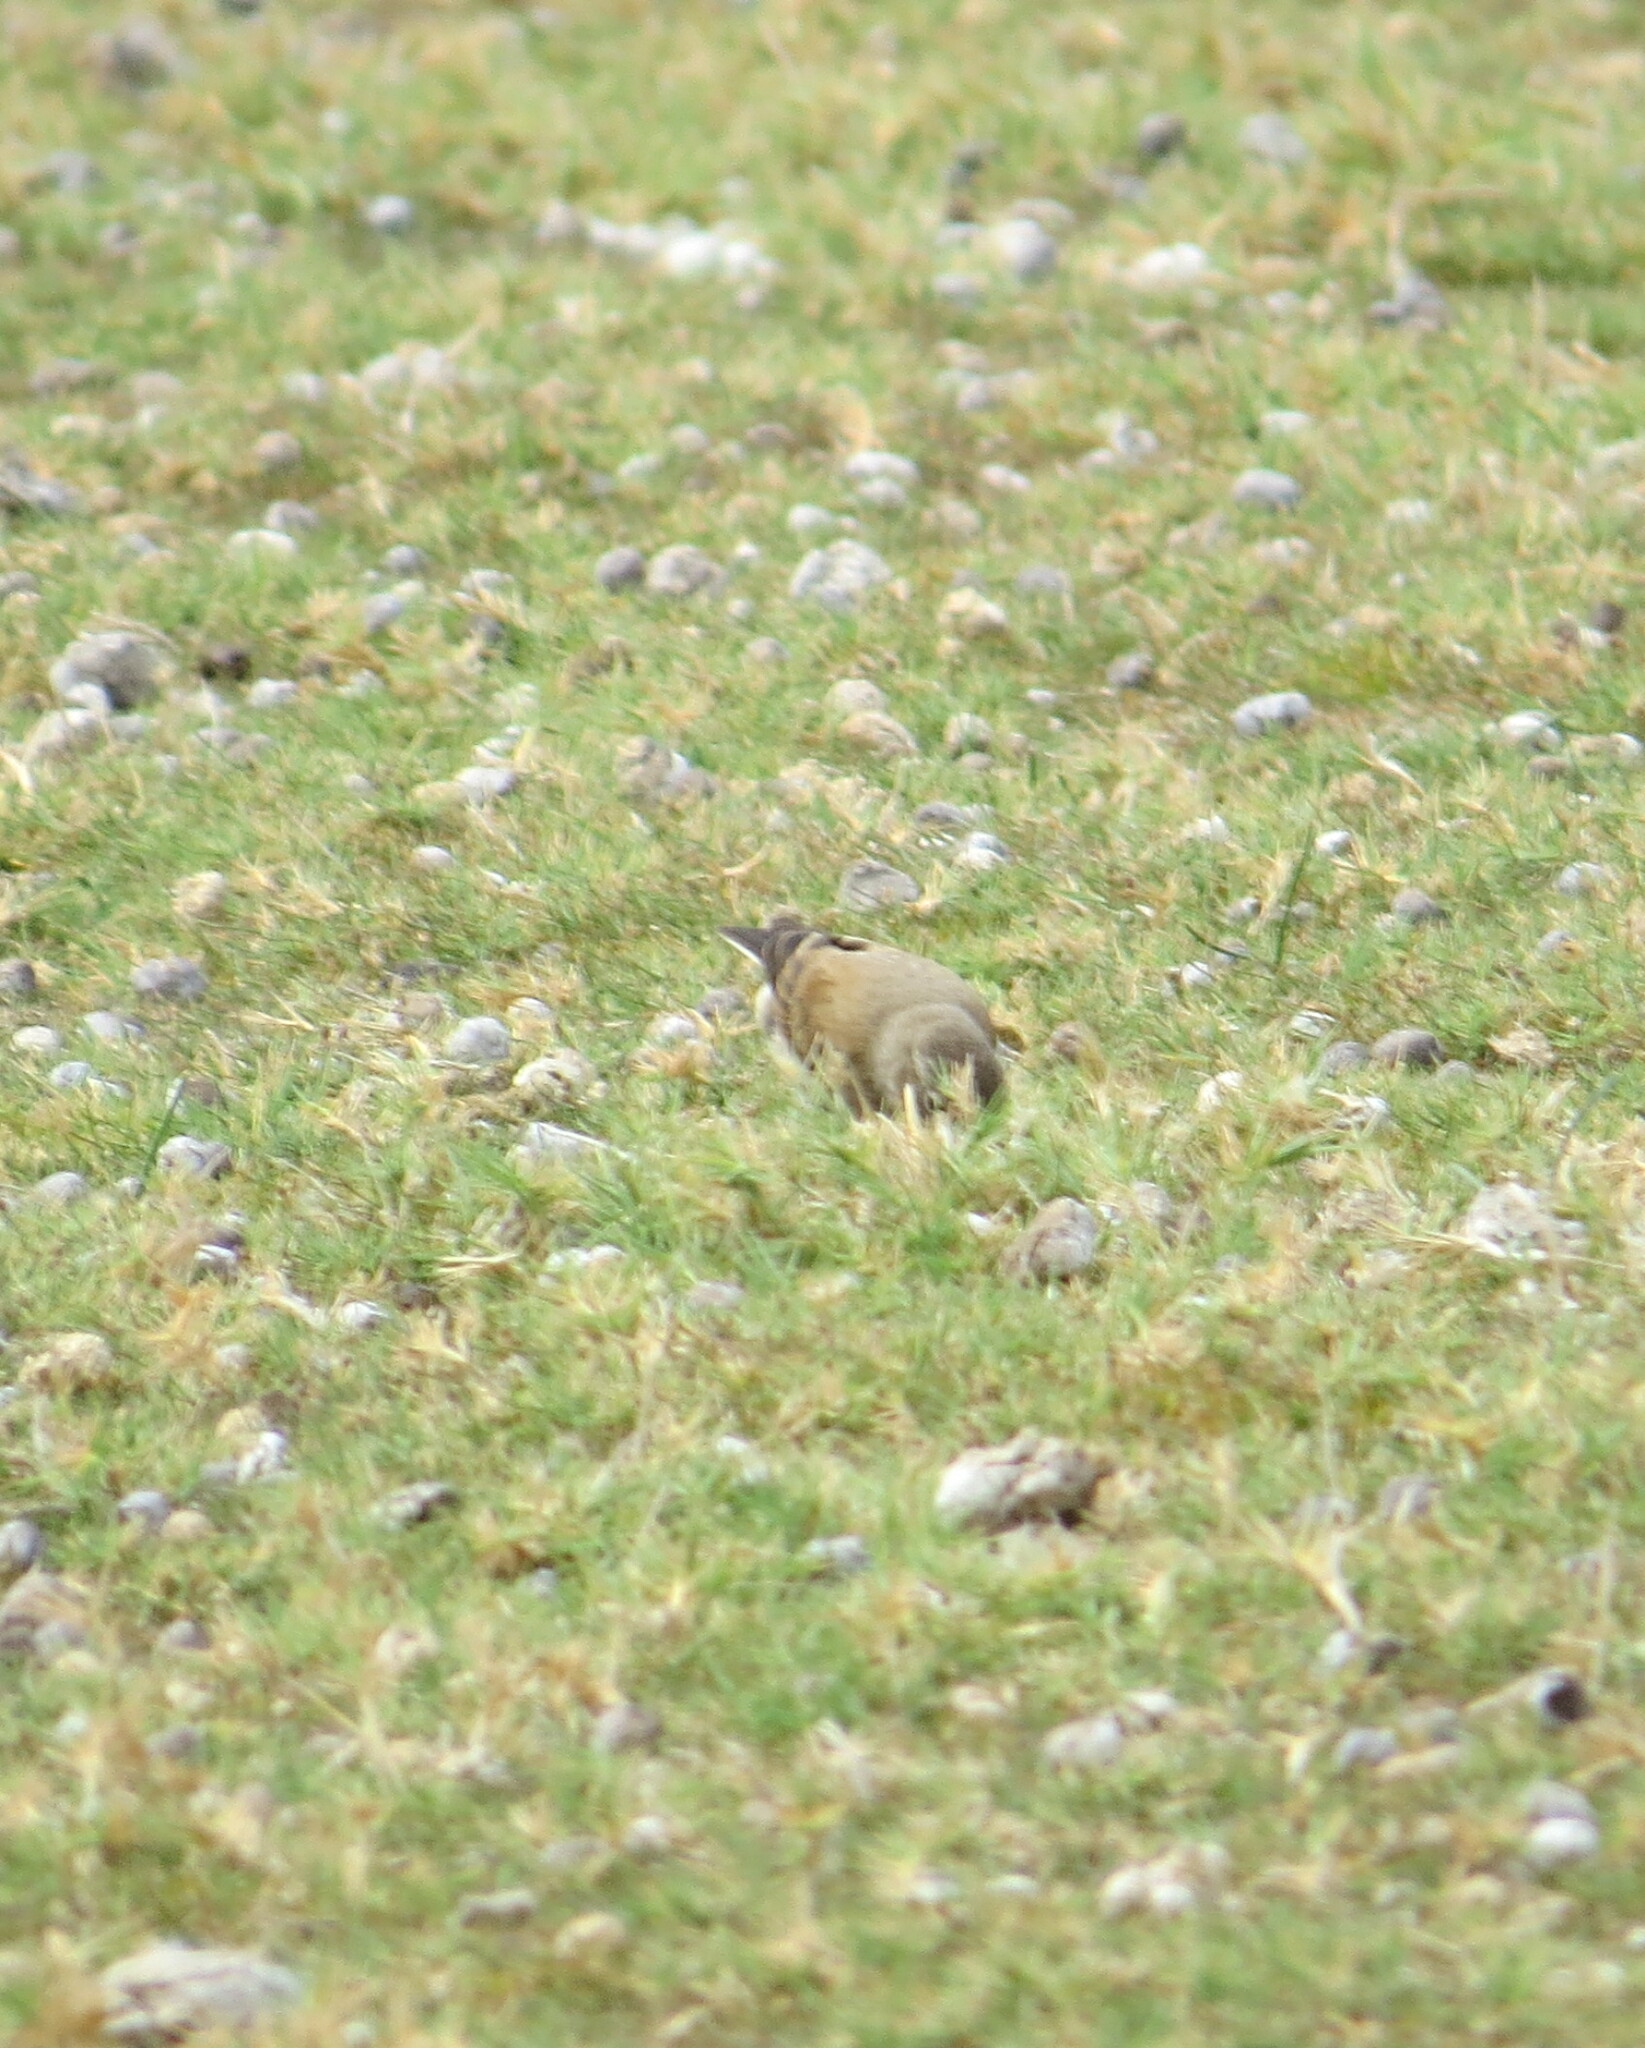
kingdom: Animalia
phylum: Chordata
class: Aves
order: Passeriformes
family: Tyrannidae
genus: Lessonia
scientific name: Lessonia rufa
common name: Austral negrito
